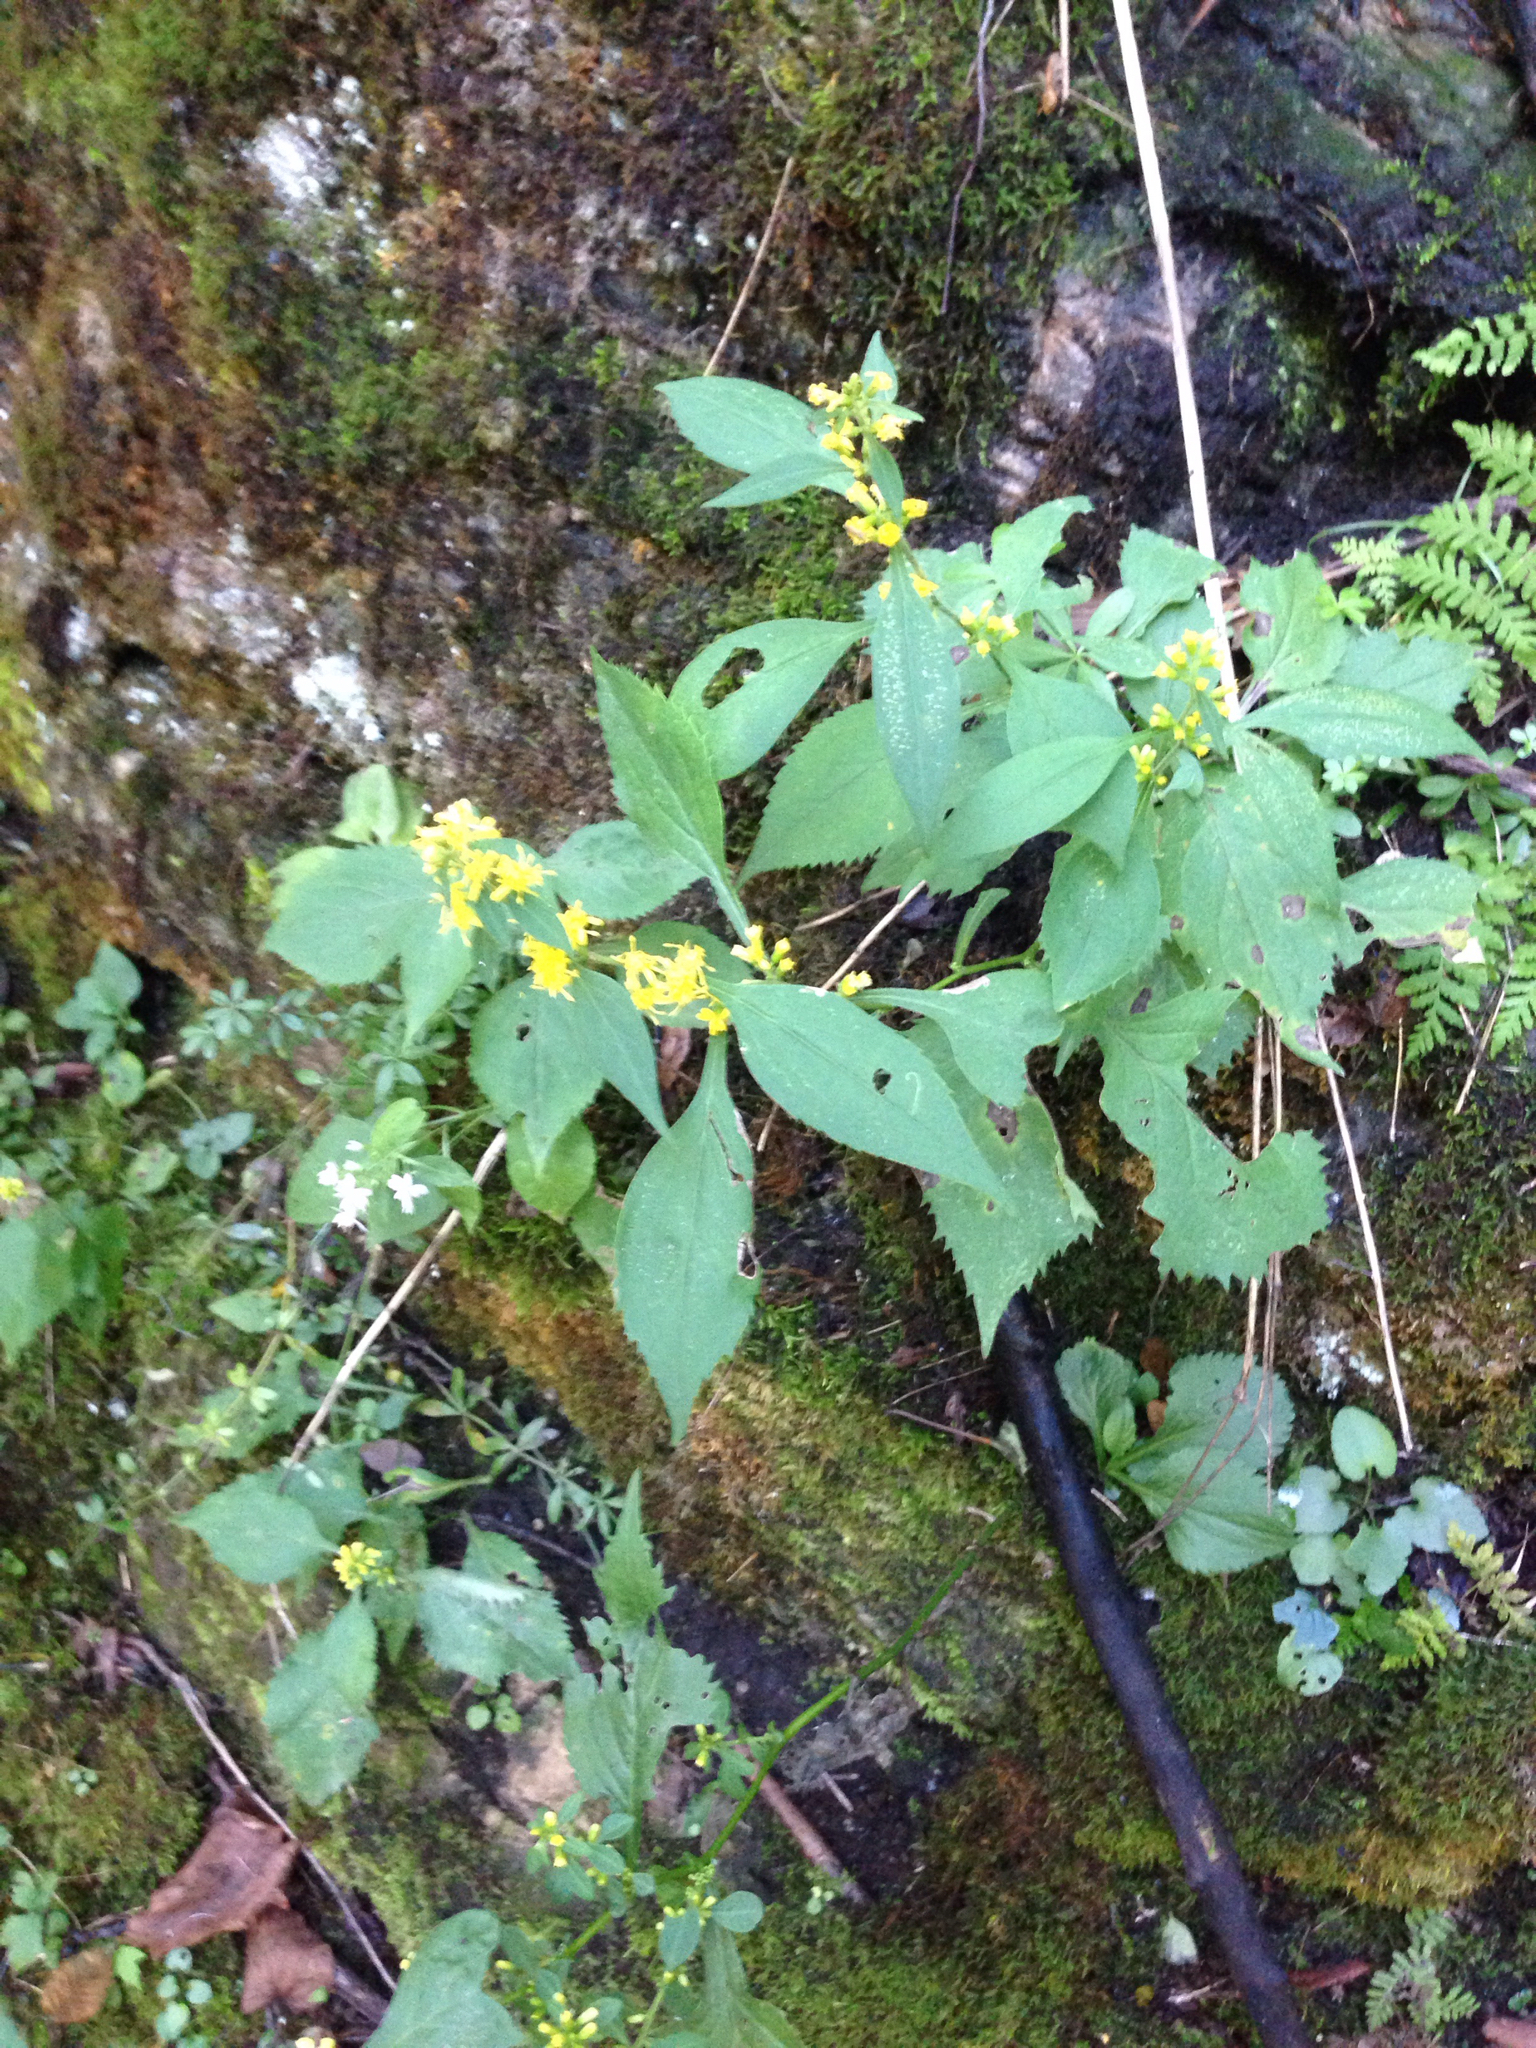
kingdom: Plantae
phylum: Tracheophyta
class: Magnoliopsida
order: Asterales
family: Asteraceae
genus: Solidago
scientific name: Solidago flexicaulis
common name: Zig-zag goldenrod
